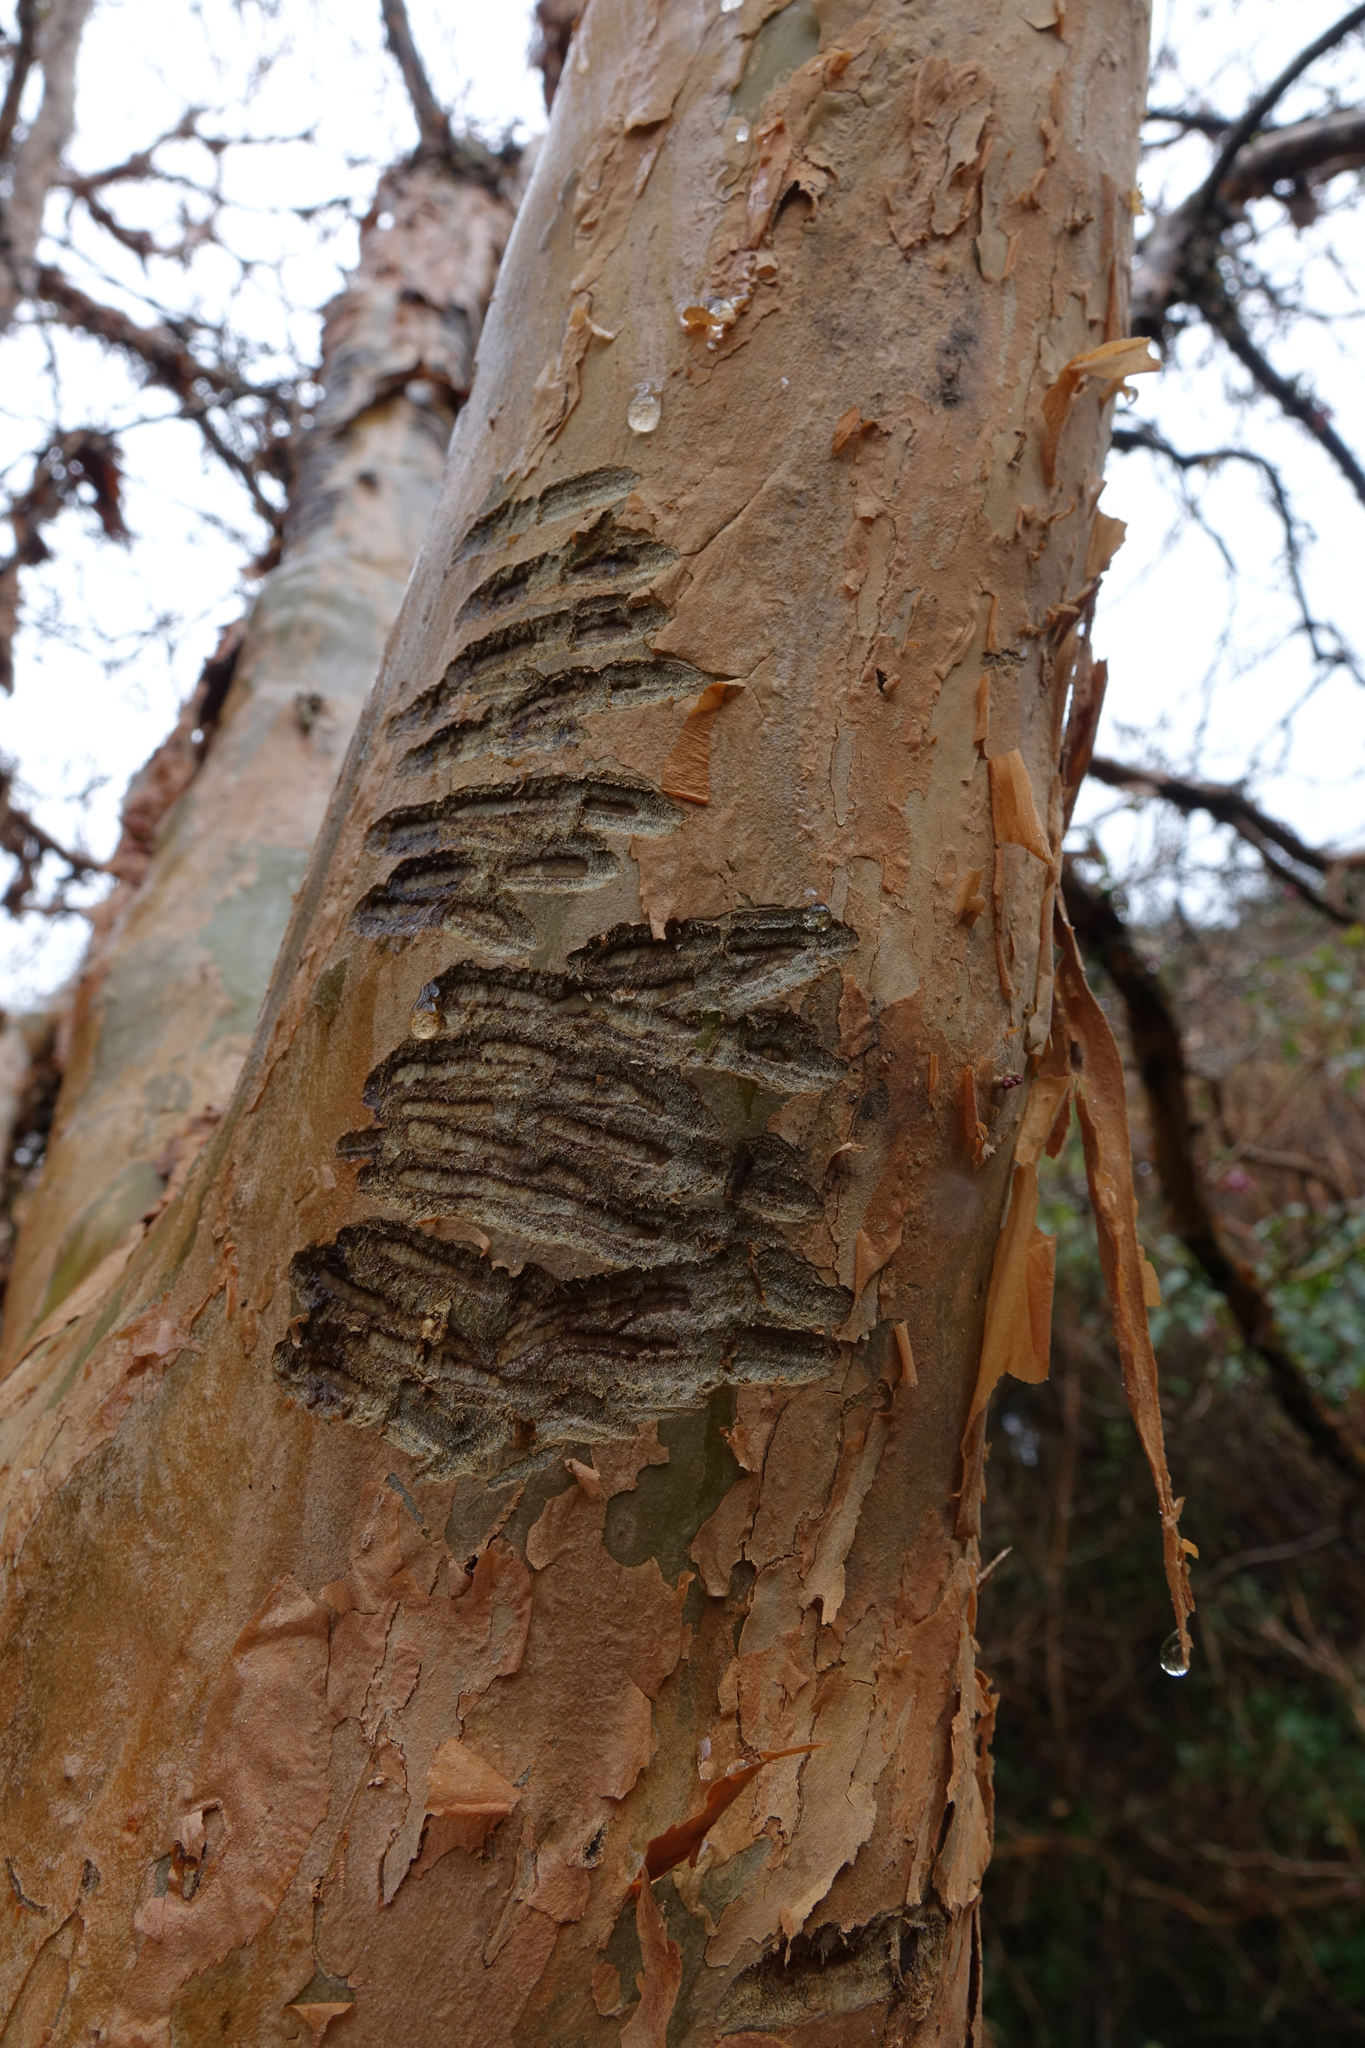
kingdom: Animalia
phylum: Chordata
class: Mammalia
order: Diprotodontia
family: Phalangeridae
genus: Trichosurus
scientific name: Trichosurus vulpecula
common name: Common brushtail
